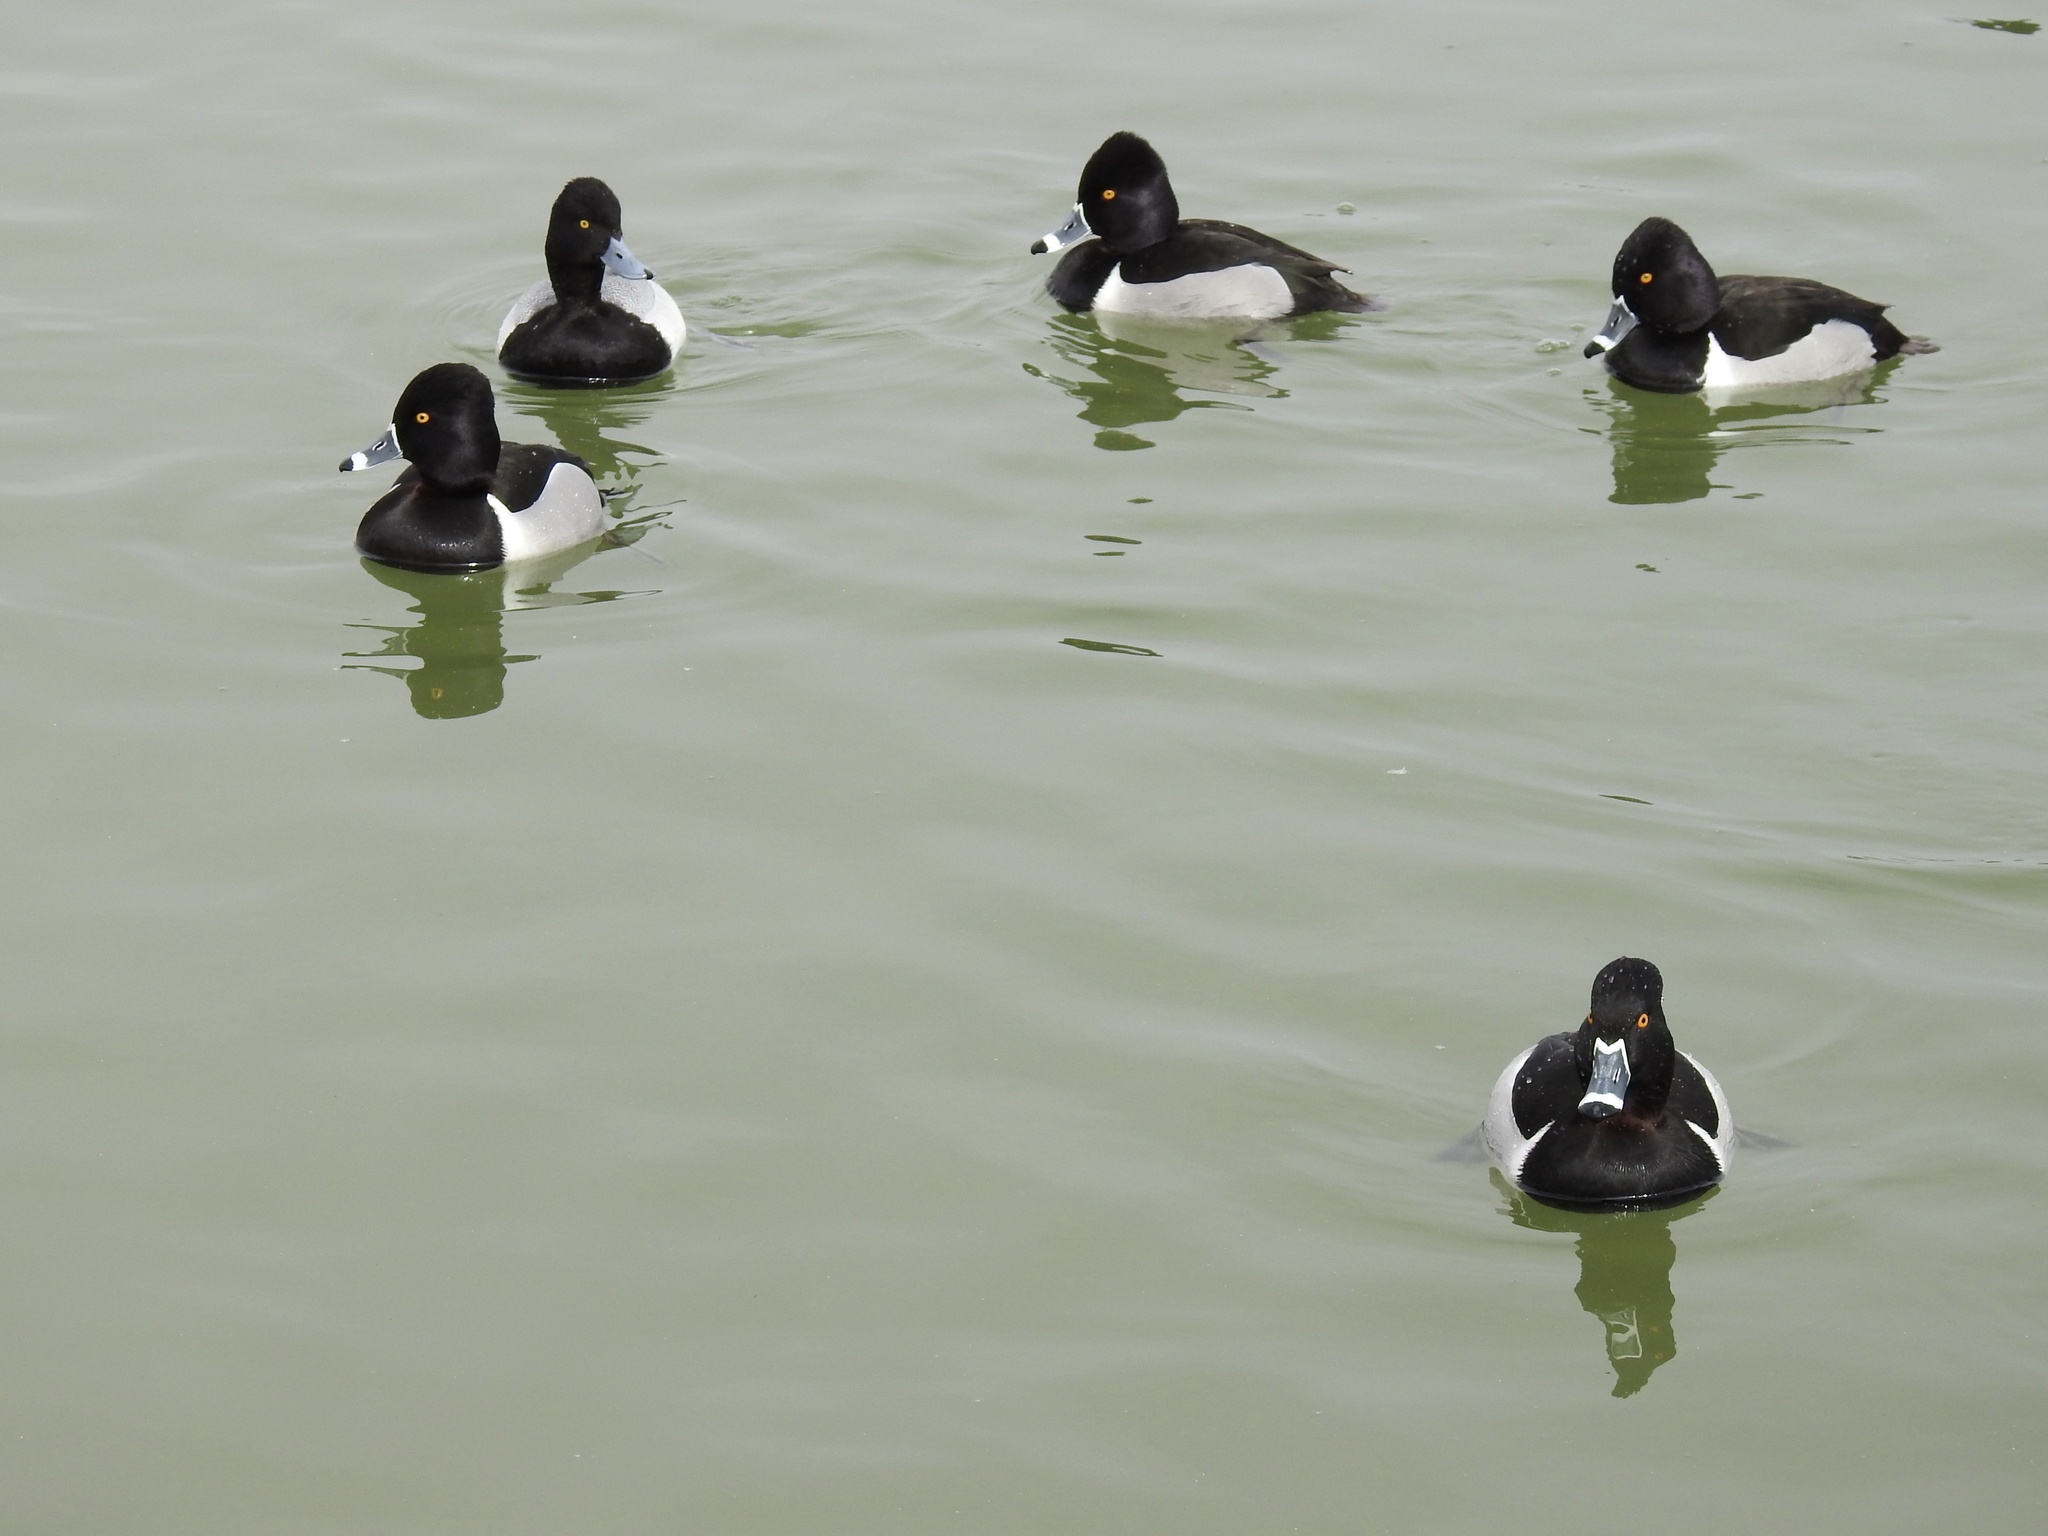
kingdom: Animalia
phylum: Chordata
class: Aves
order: Anseriformes
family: Anatidae
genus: Aythya
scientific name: Aythya collaris
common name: Ring-necked duck
